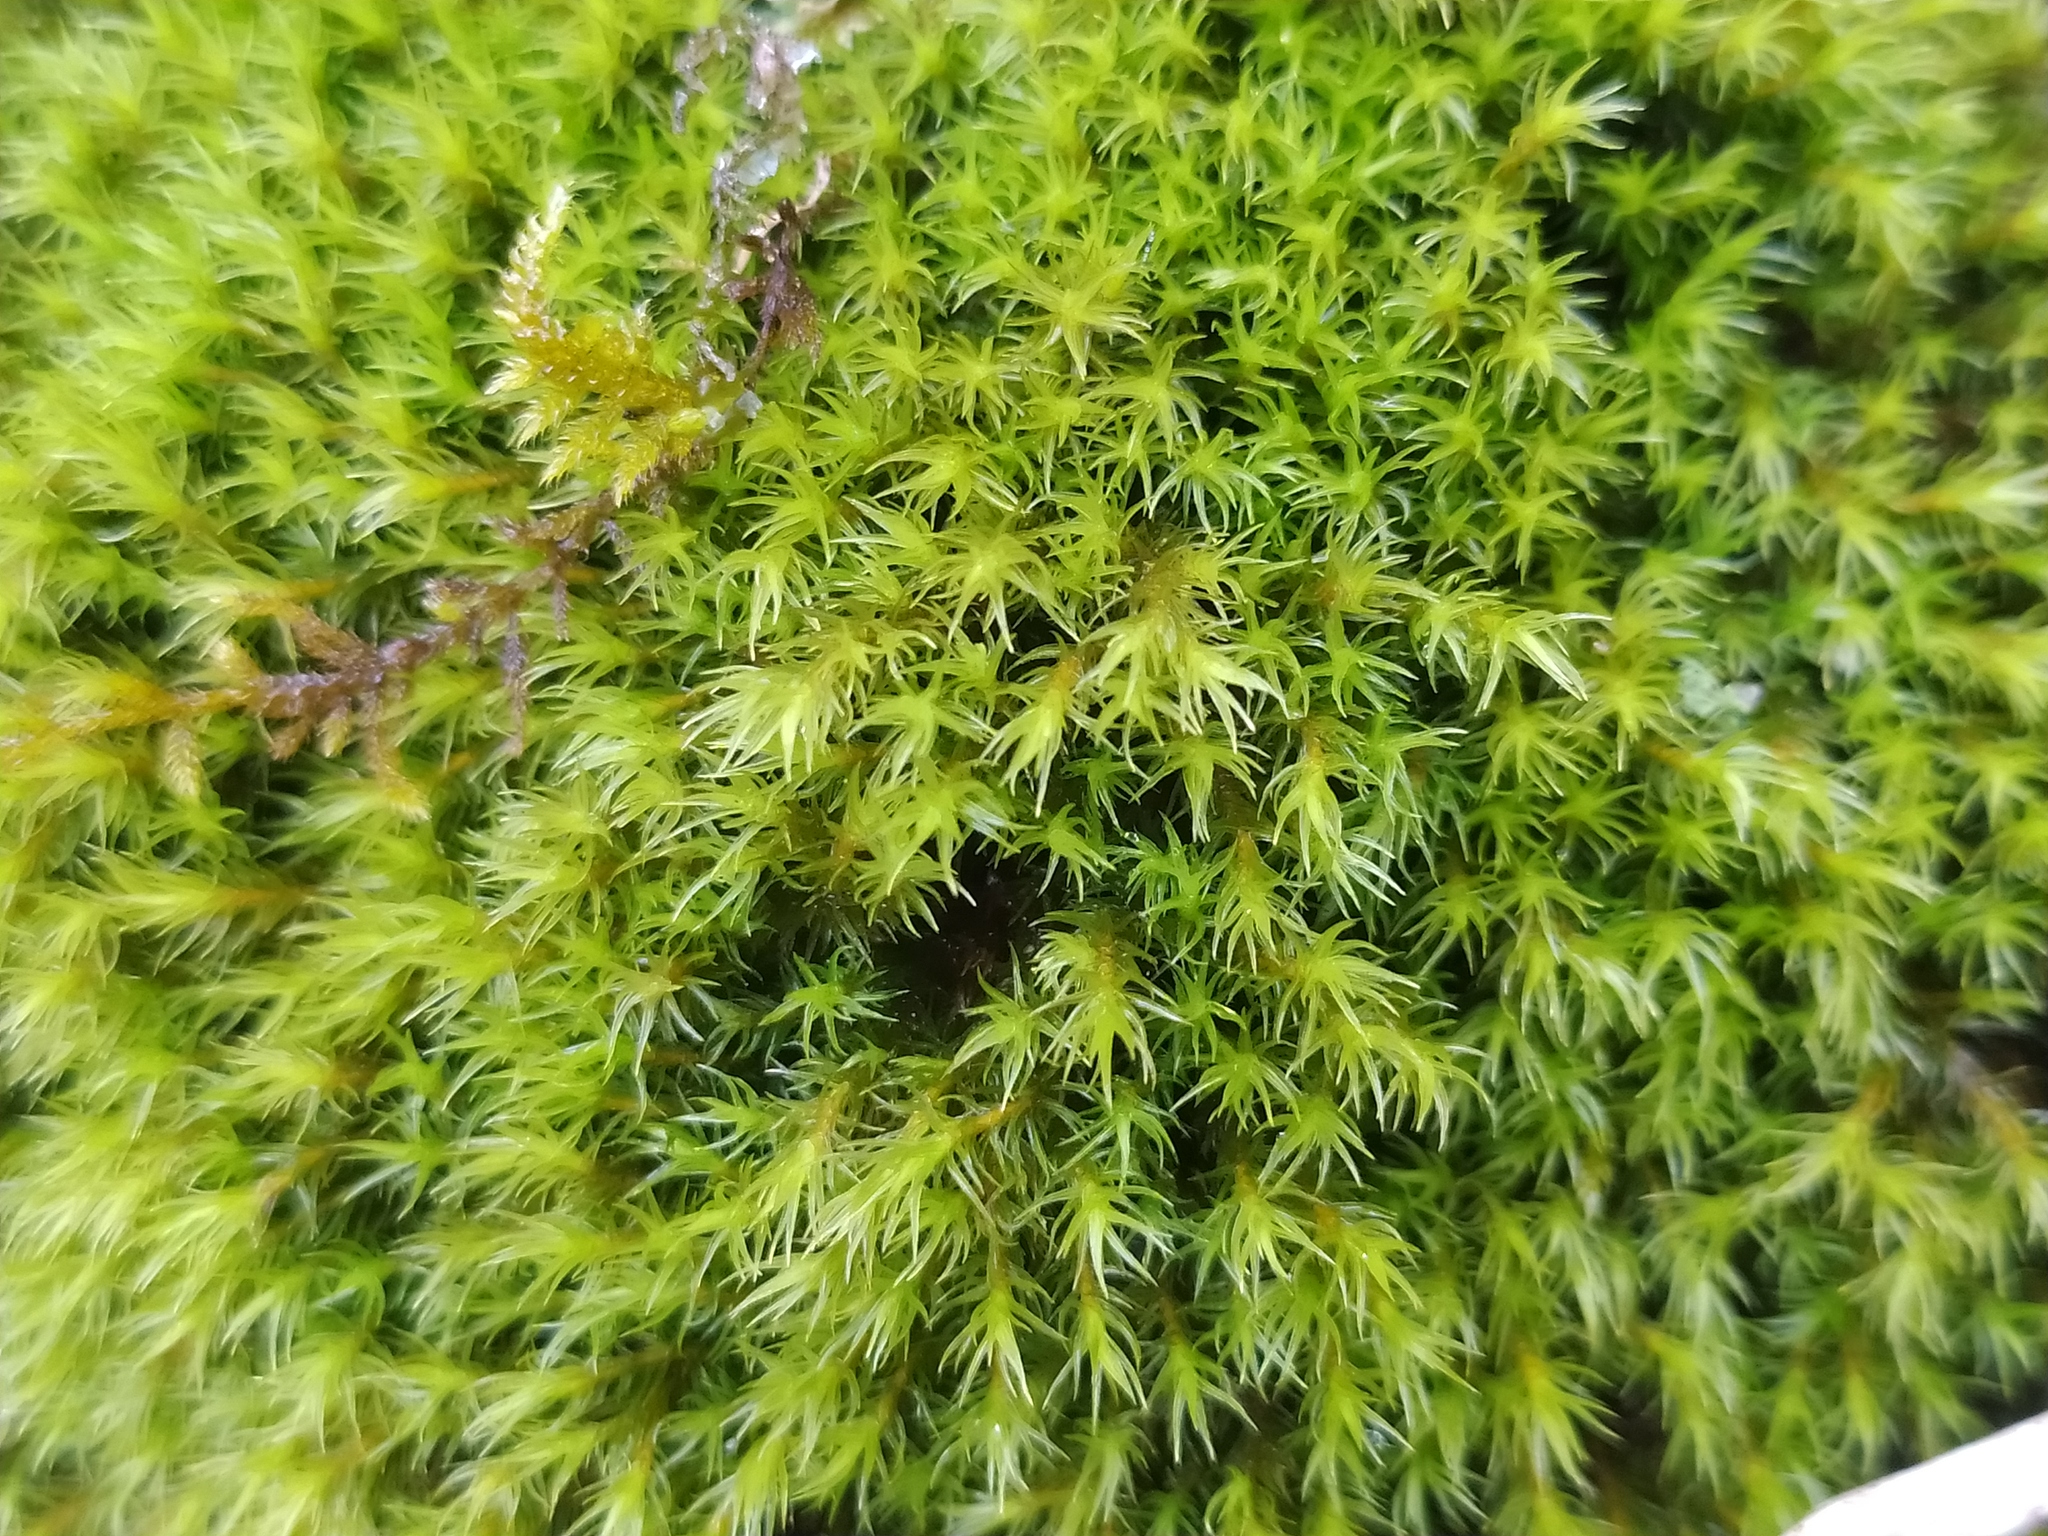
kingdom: Plantae
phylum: Bryophyta
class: Bryopsida
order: Grimmiales
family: Grimmiaceae
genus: Grimmia
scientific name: Grimmia ramondii
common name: Spreading-leaved grimmia
